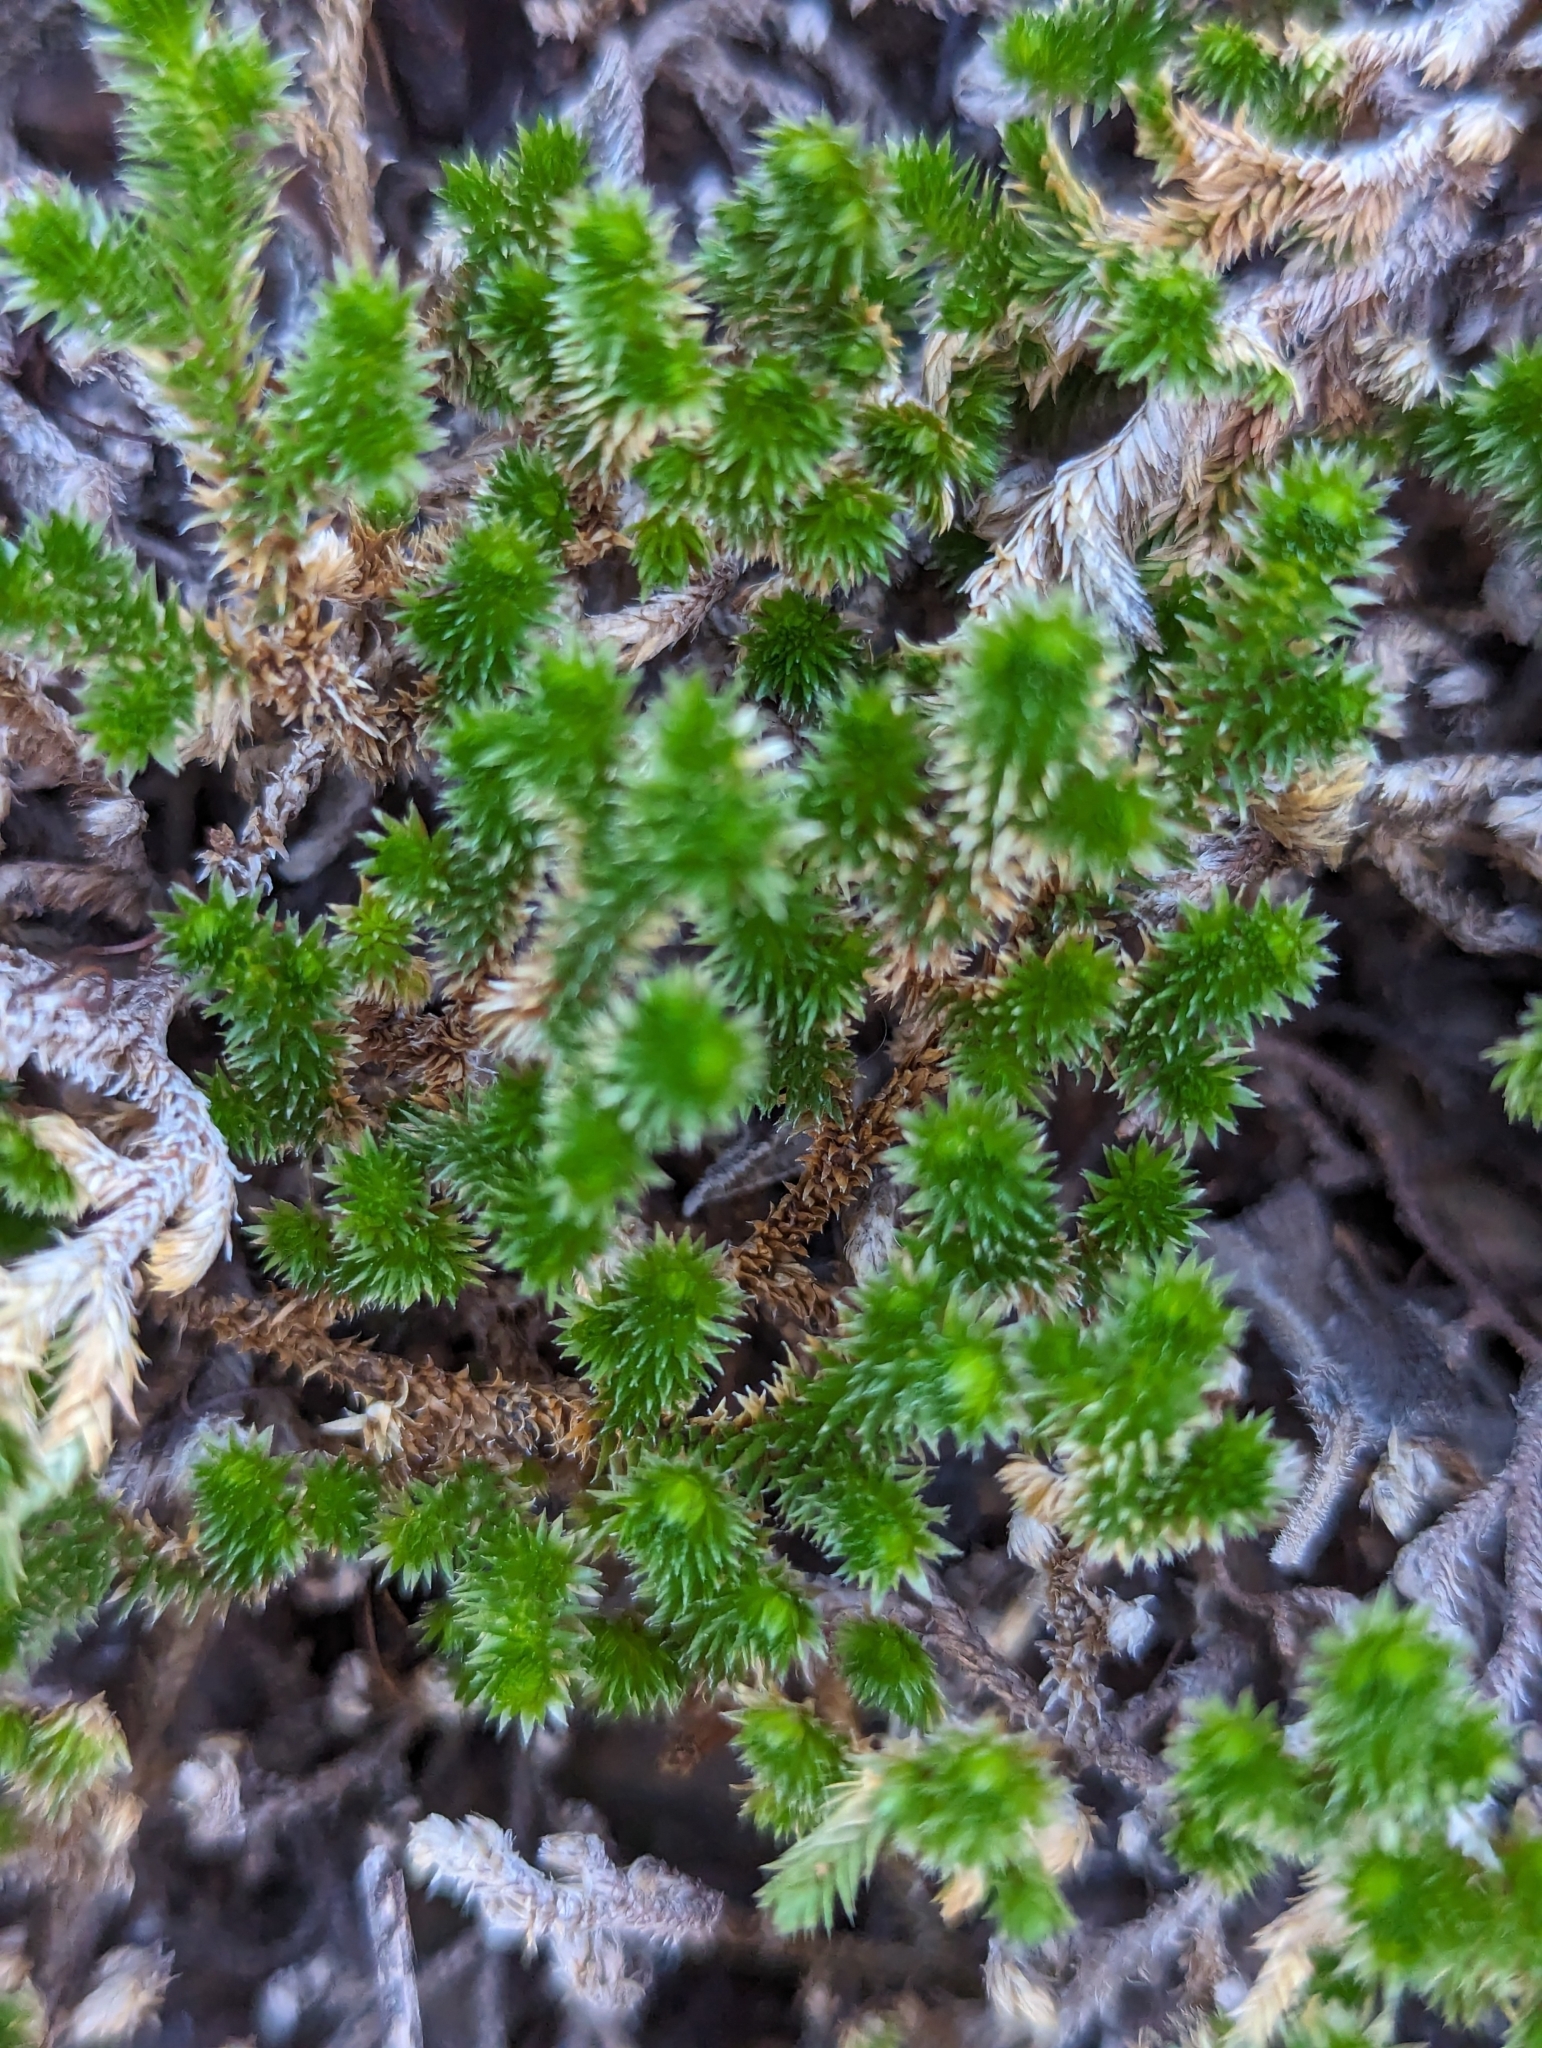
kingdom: Plantae
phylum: Tracheophyta
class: Lycopodiopsida
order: Selaginellales
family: Selaginellaceae
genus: Selaginella
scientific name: Selaginella arizonica
